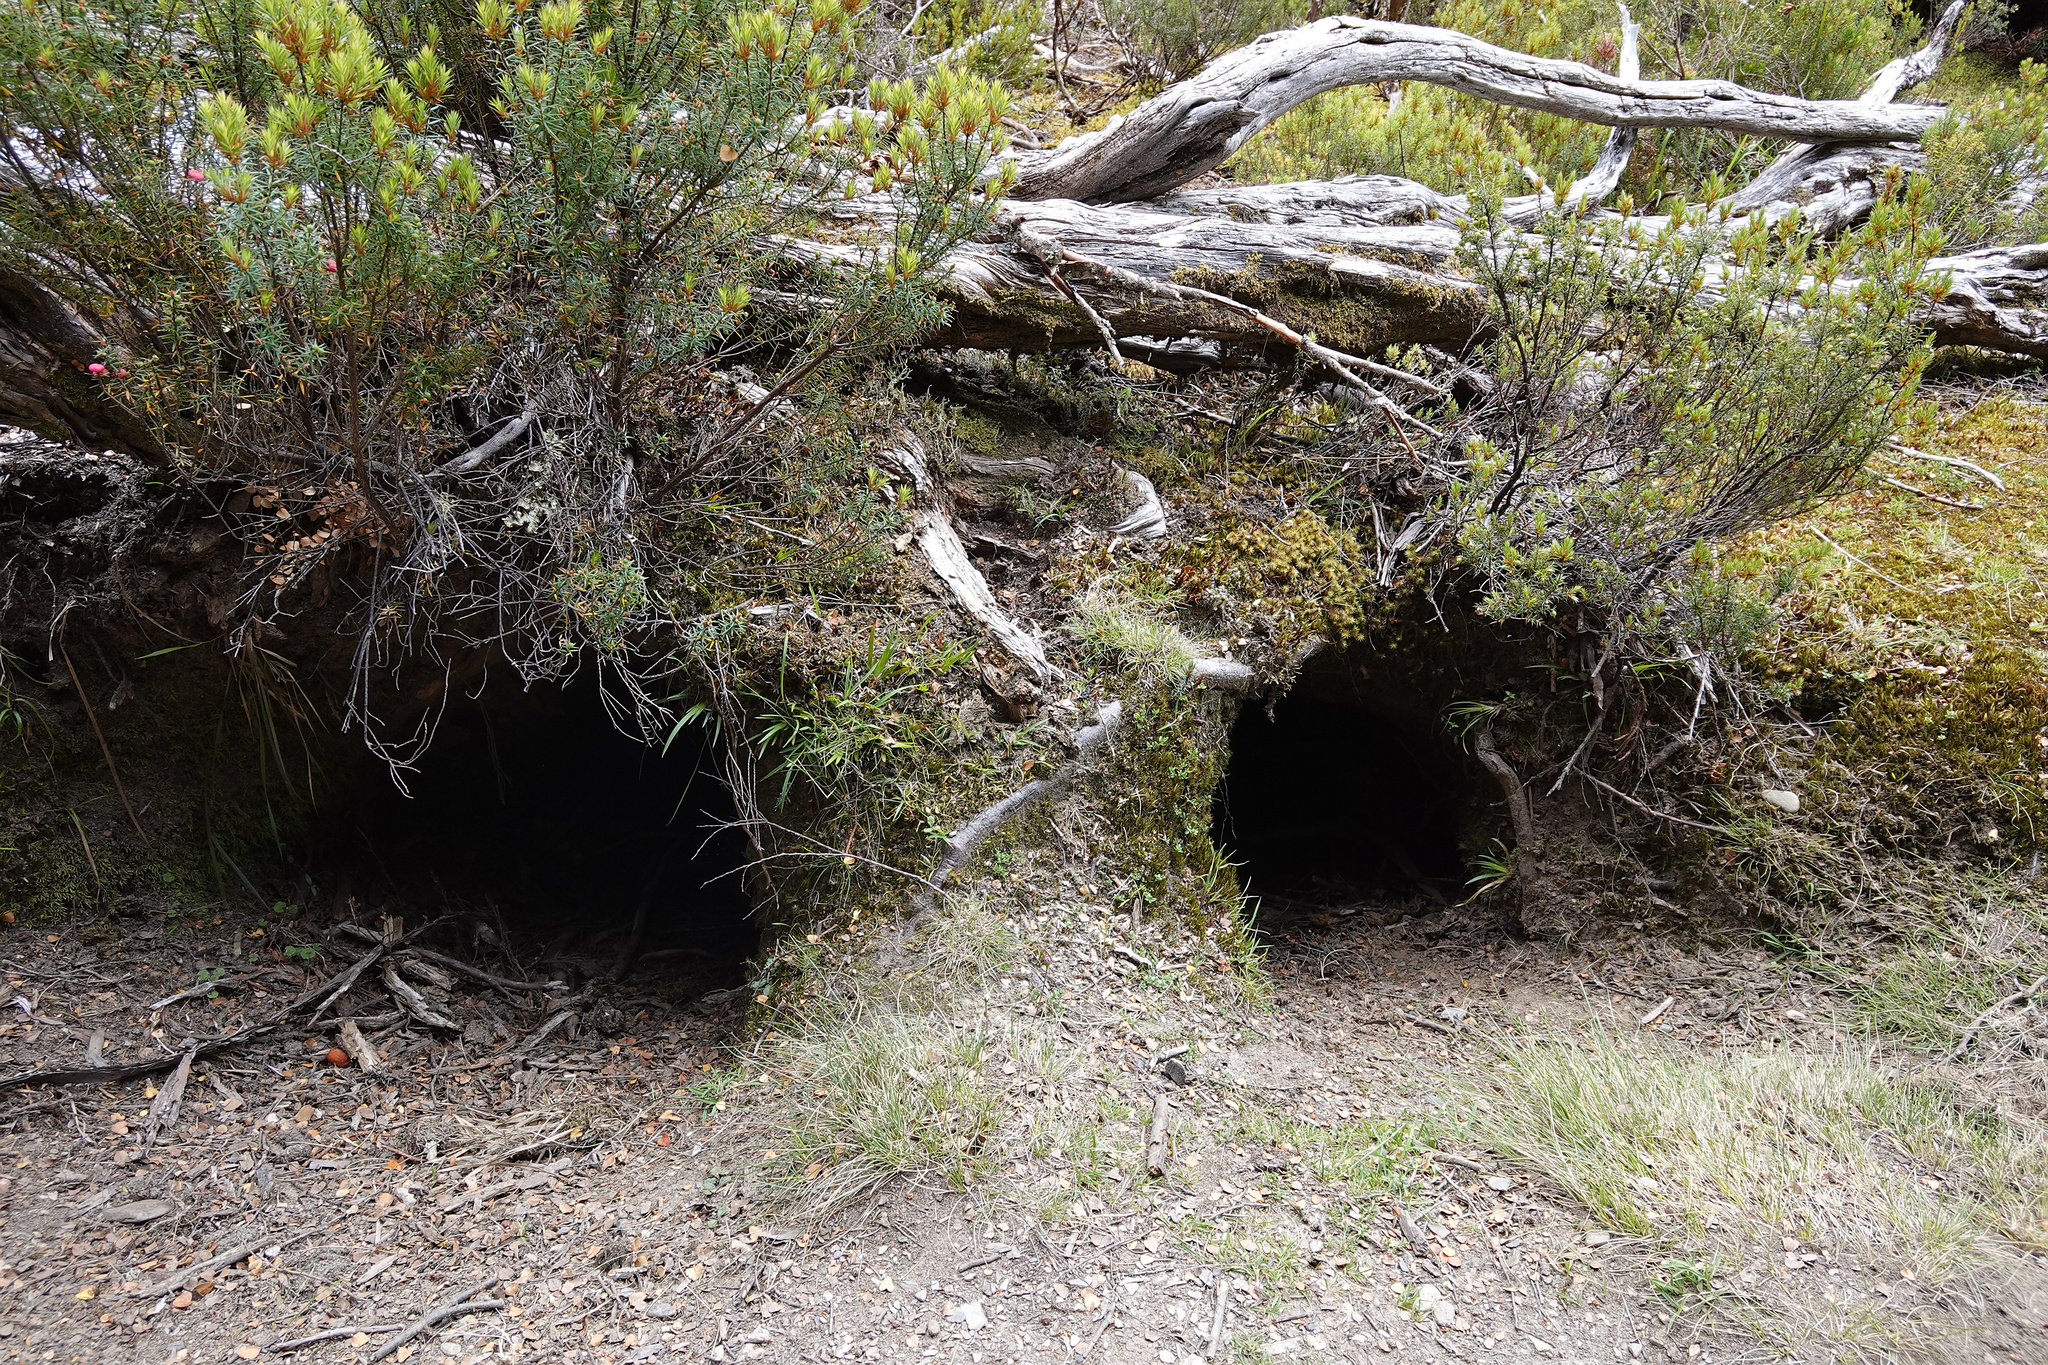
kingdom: Animalia
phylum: Chordata
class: Mammalia
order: Diprotodontia
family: Vombatidae
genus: Vombatus
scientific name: Vombatus ursinus
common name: Common wombat
